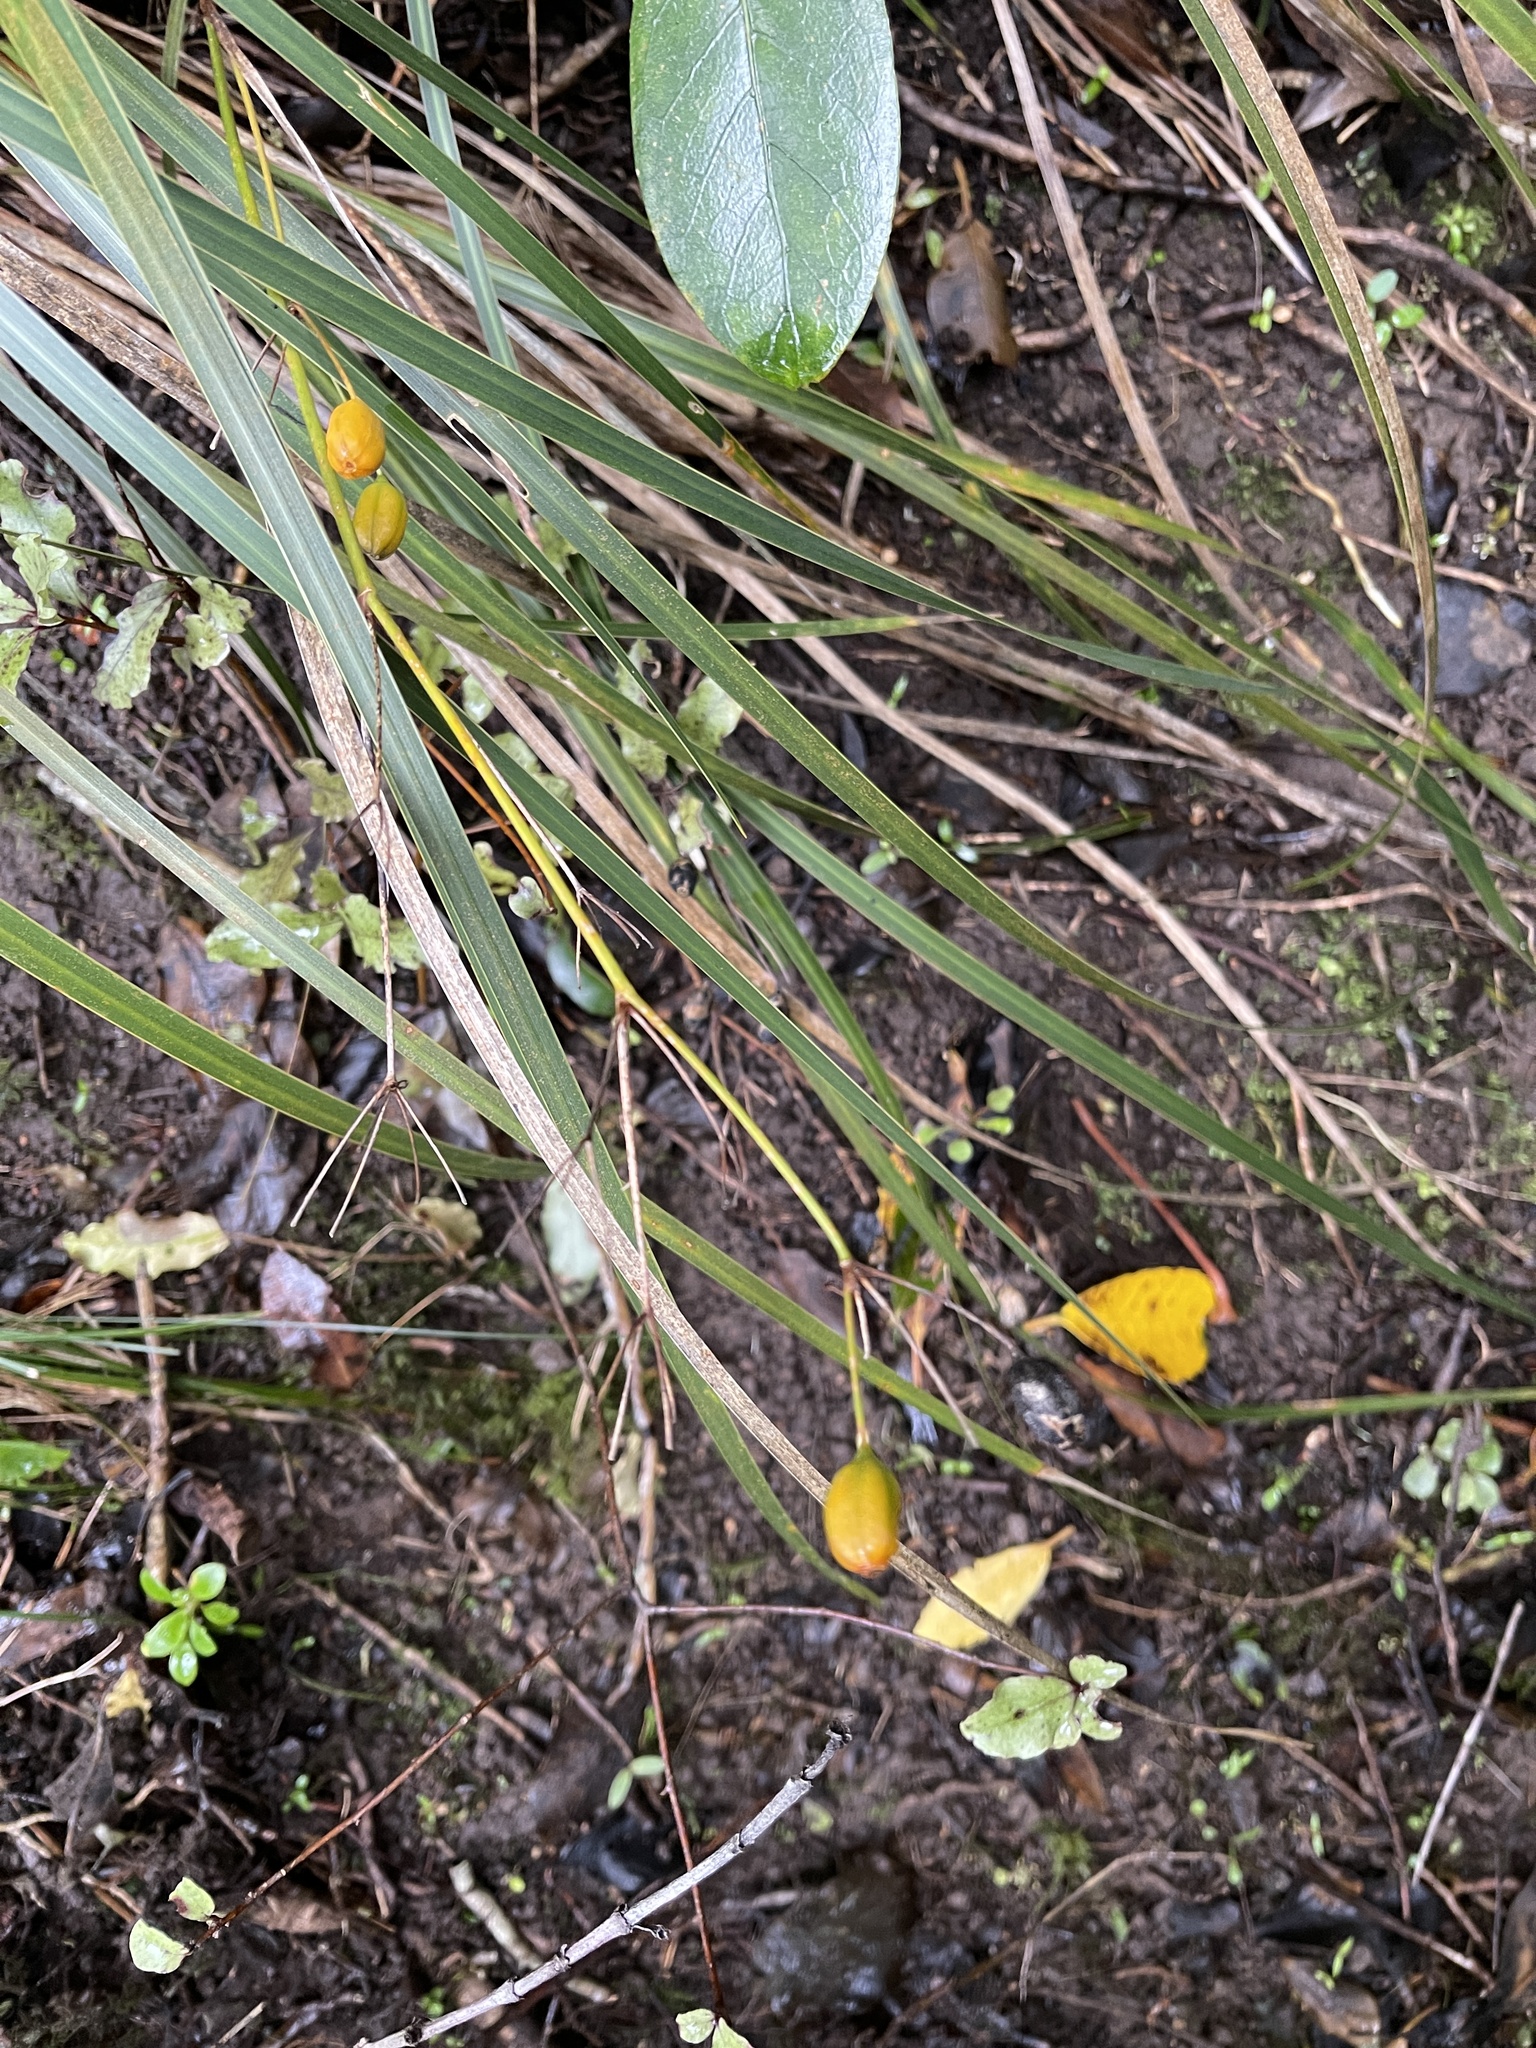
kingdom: Plantae
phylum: Tracheophyta
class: Liliopsida
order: Asparagales
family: Iridaceae
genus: Libertia
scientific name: Libertia ixioides
